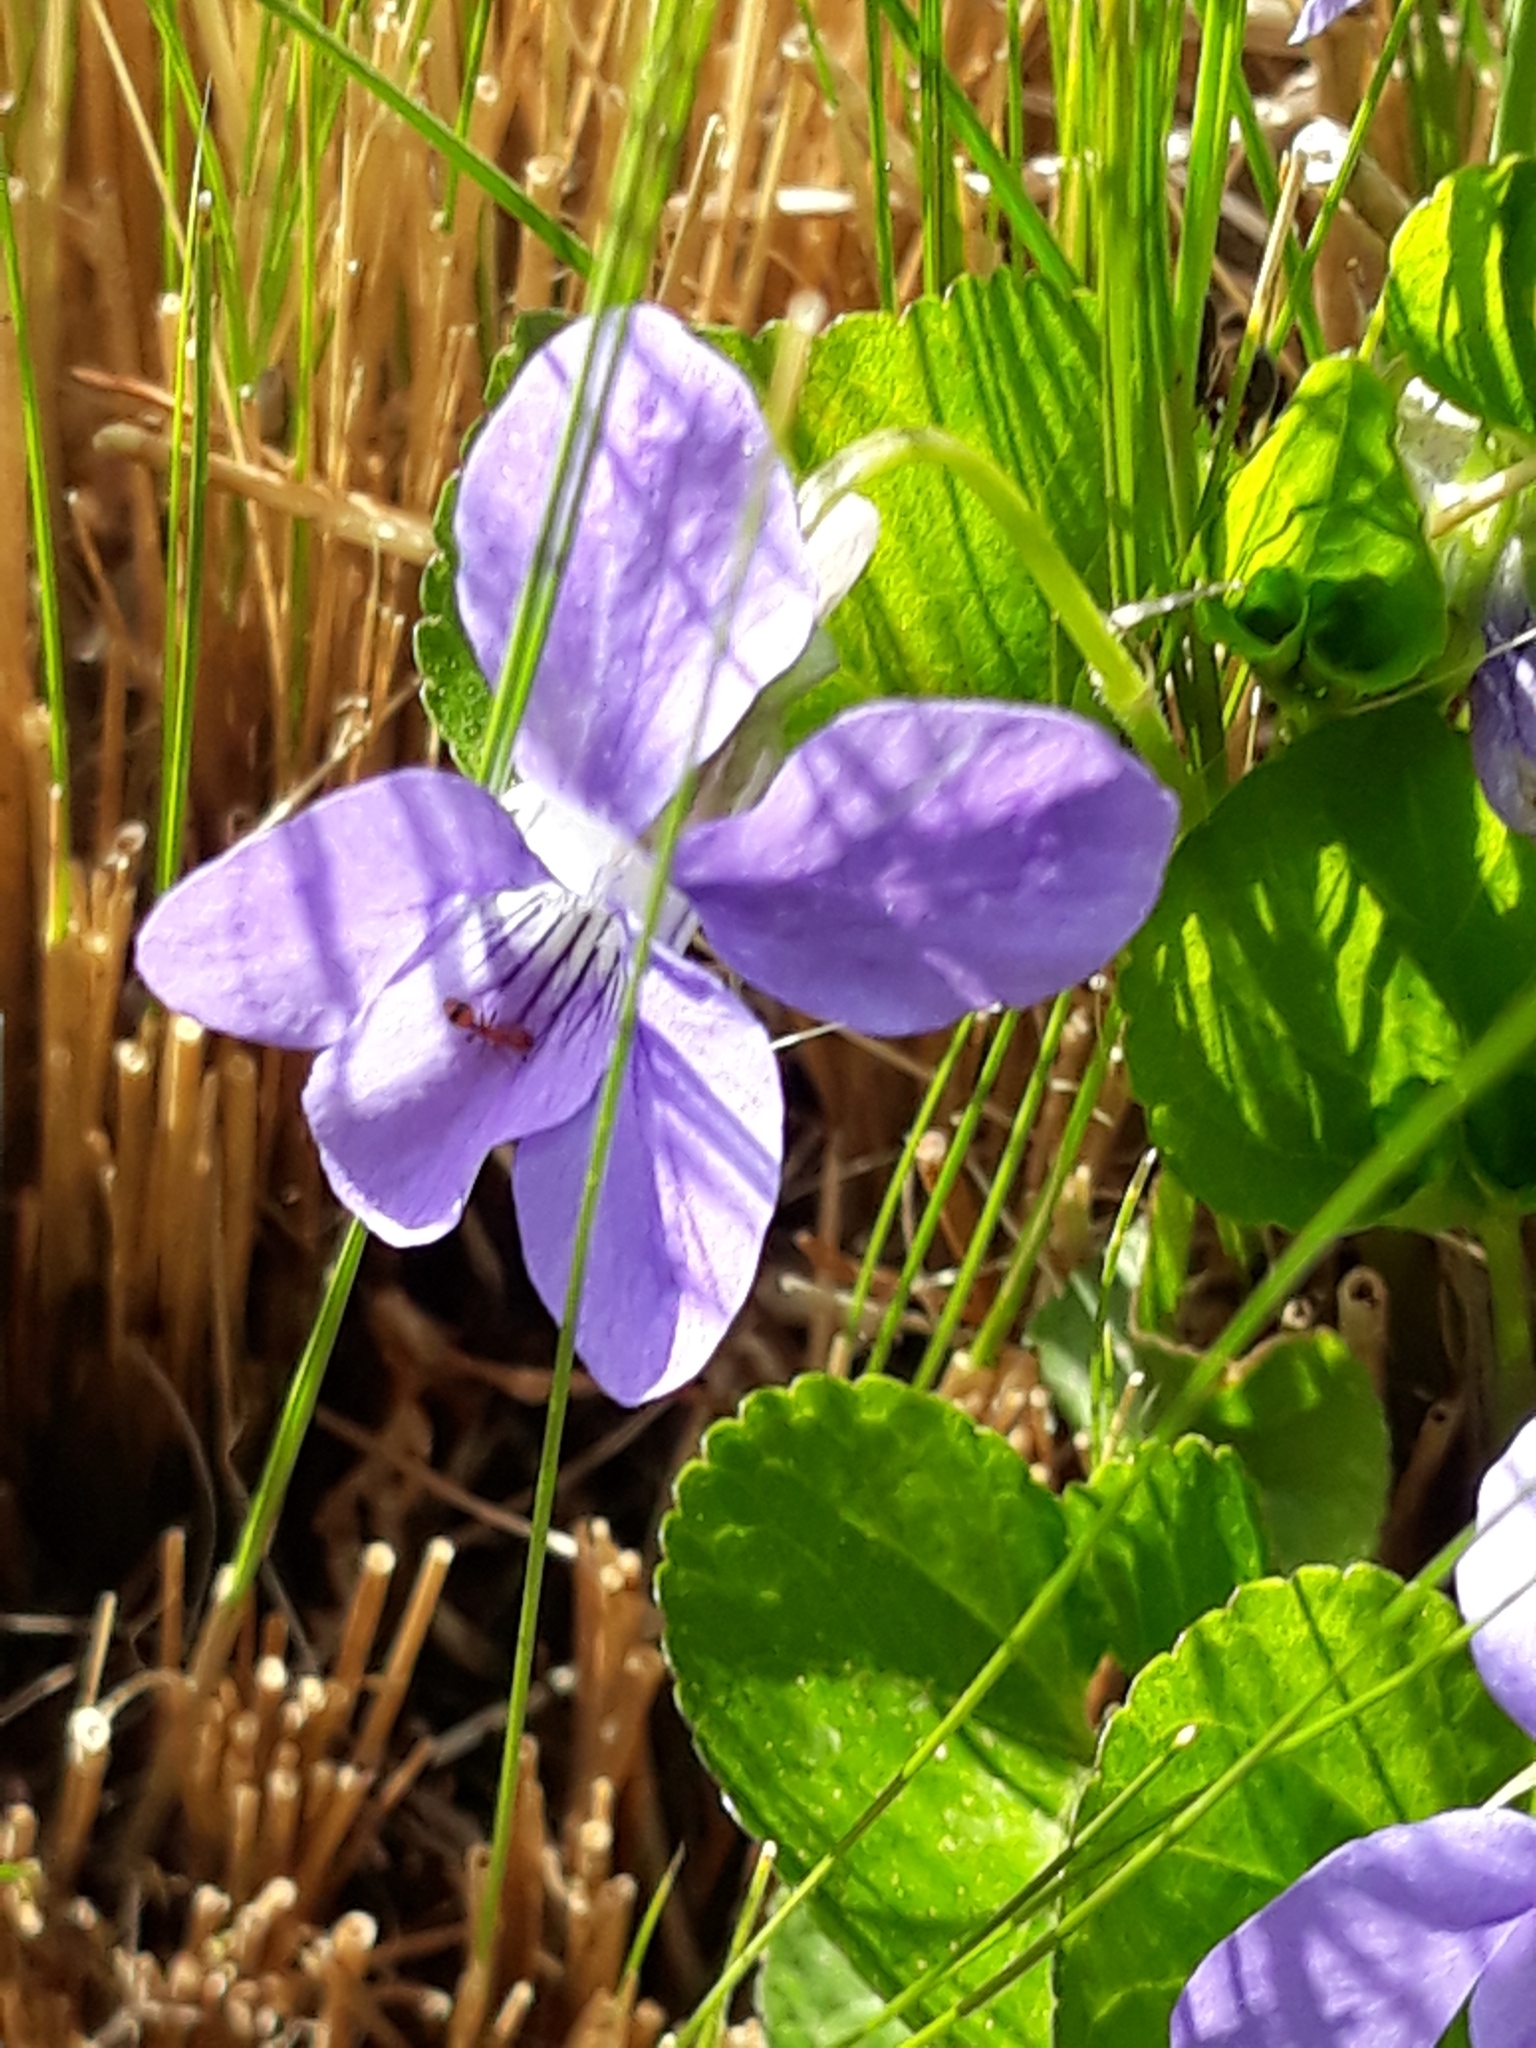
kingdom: Plantae
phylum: Tracheophyta
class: Magnoliopsida
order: Malpighiales
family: Violaceae
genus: Viola
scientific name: Viola palustris
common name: Marsh violet
